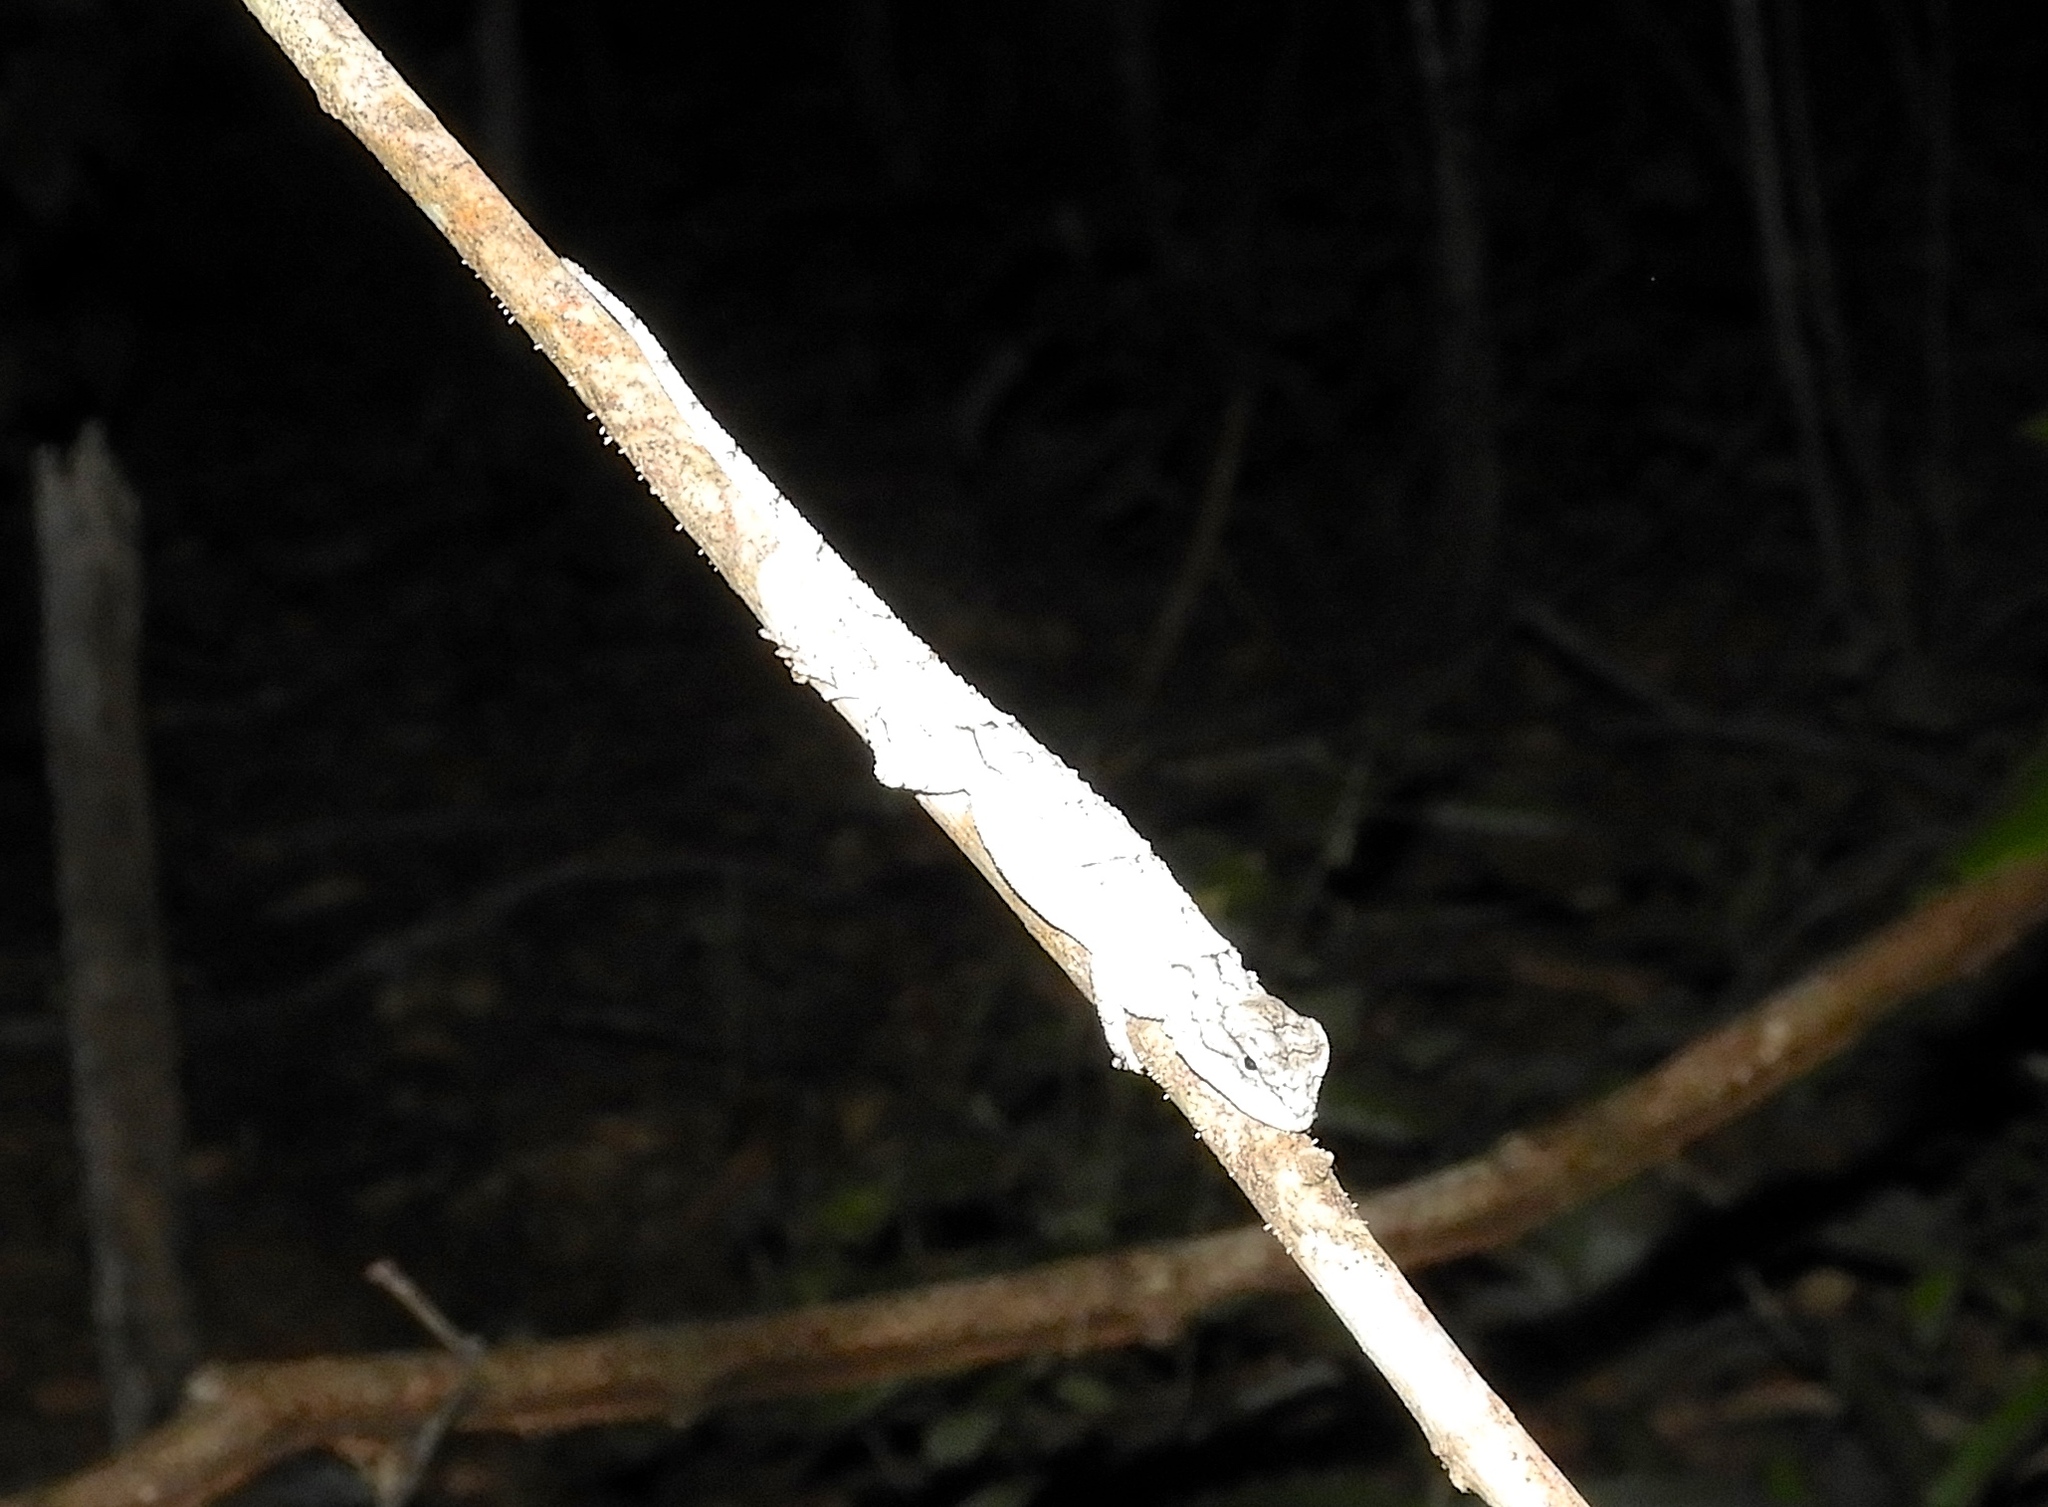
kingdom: Animalia
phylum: Chordata
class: Squamata
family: Phrynosomatidae
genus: Sceloporus
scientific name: Sceloporus
